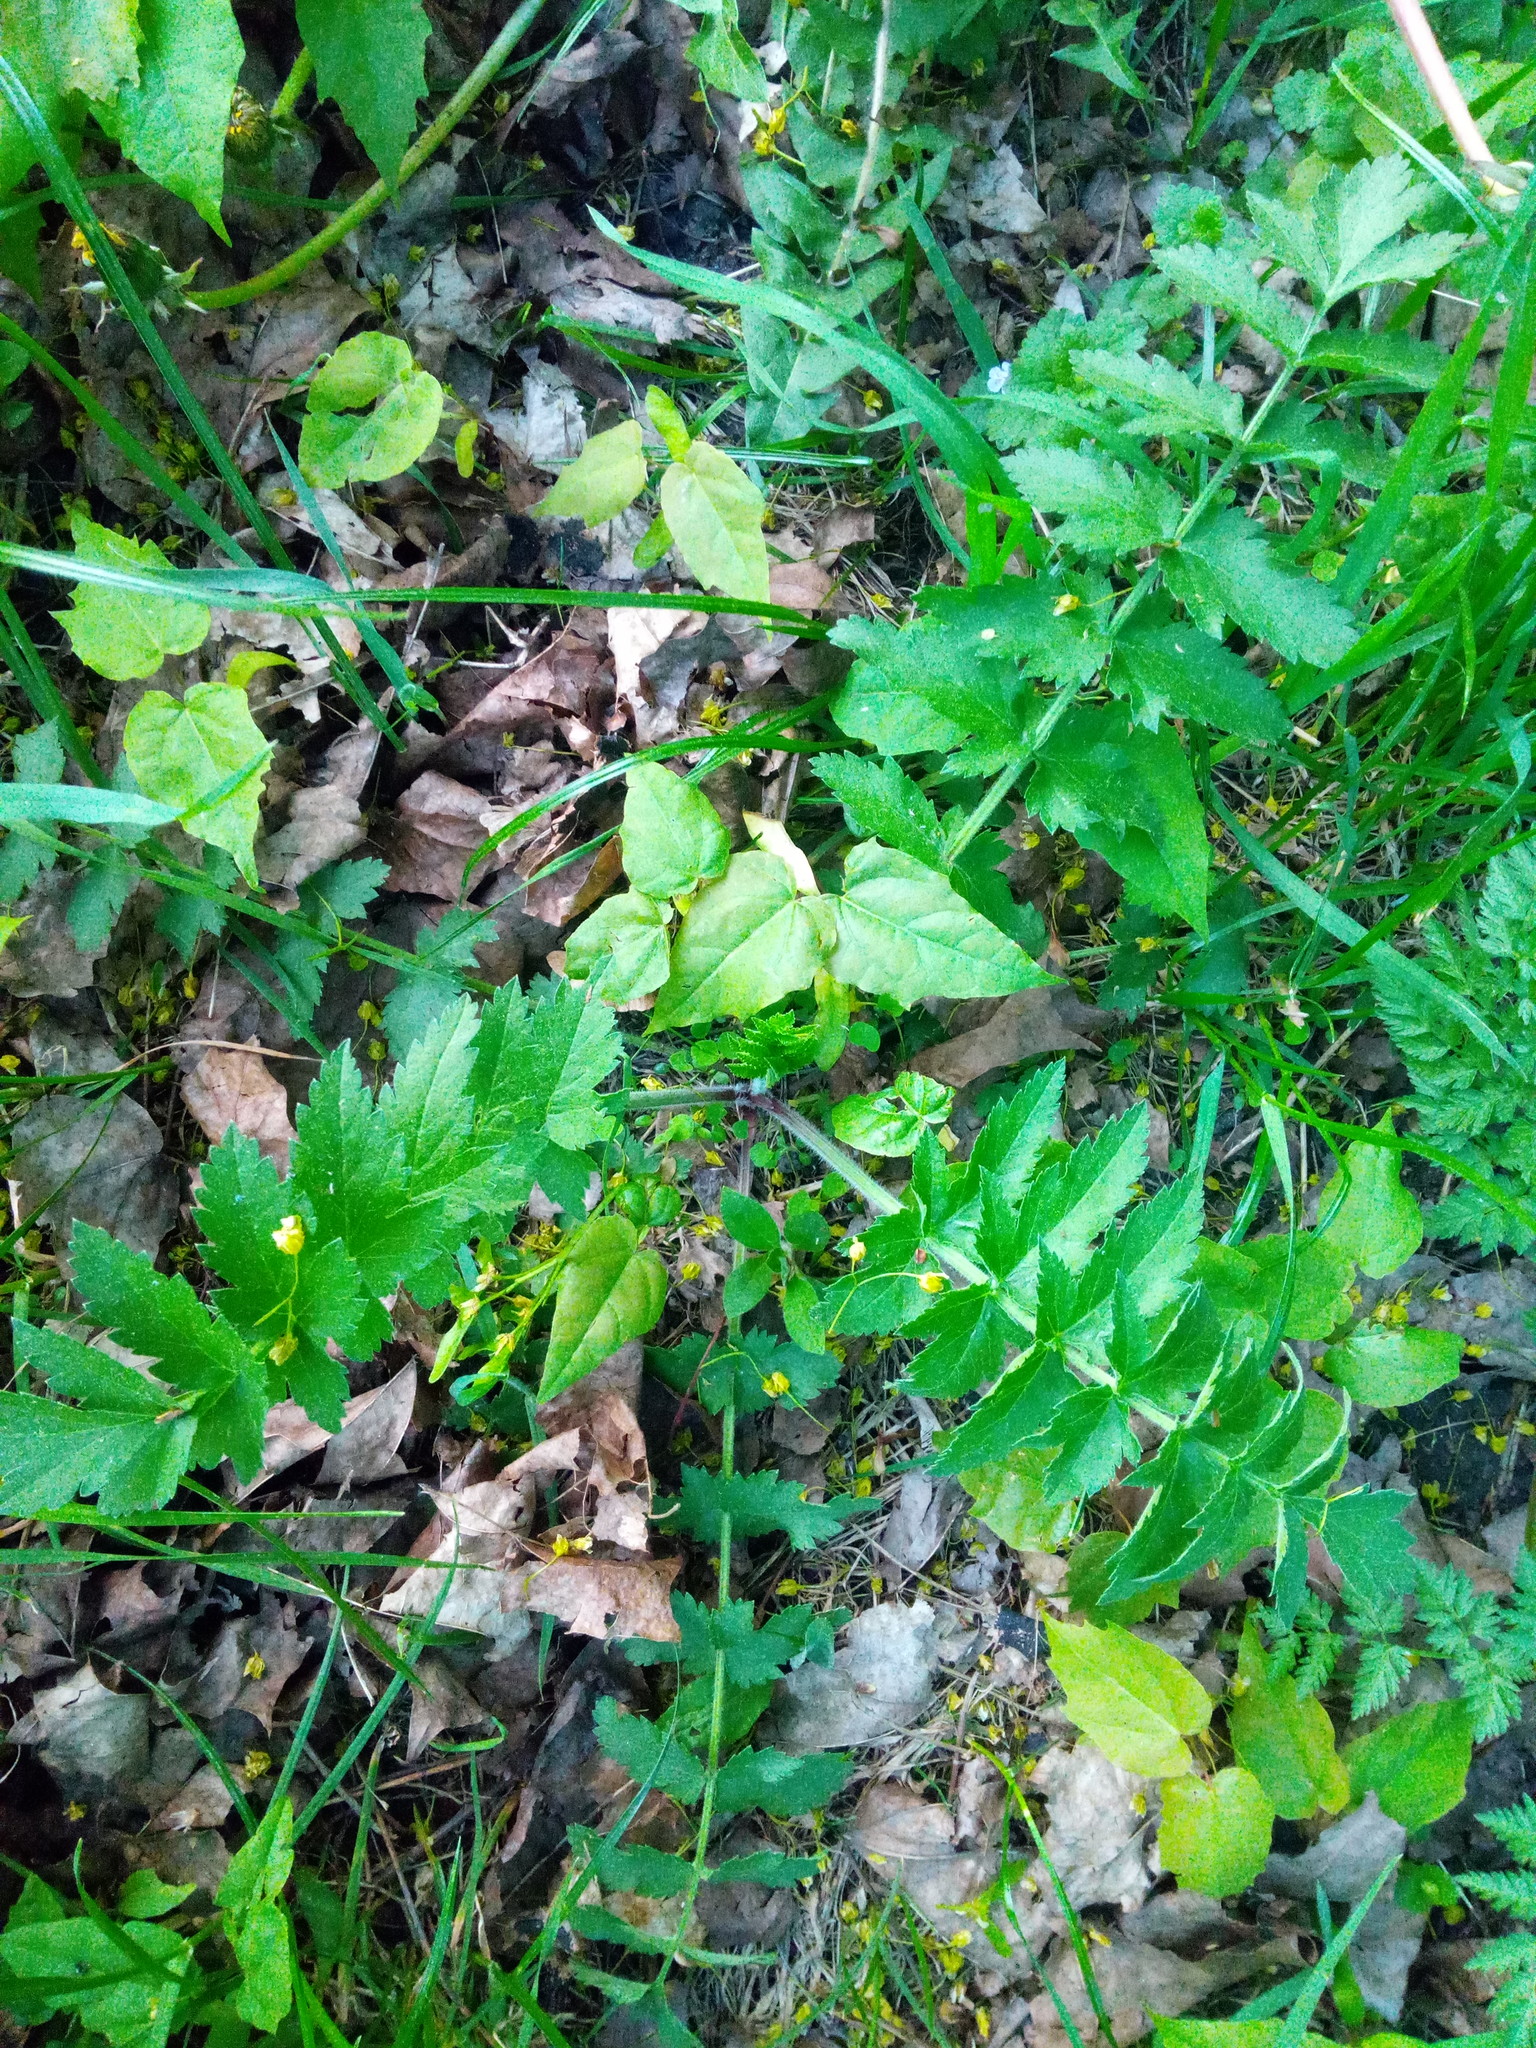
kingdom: Plantae
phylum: Tracheophyta
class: Magnoliopsida
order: Apiales
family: Apiaceae
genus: Pastinaca
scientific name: Pastinaca sativa
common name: Wild parsnip
